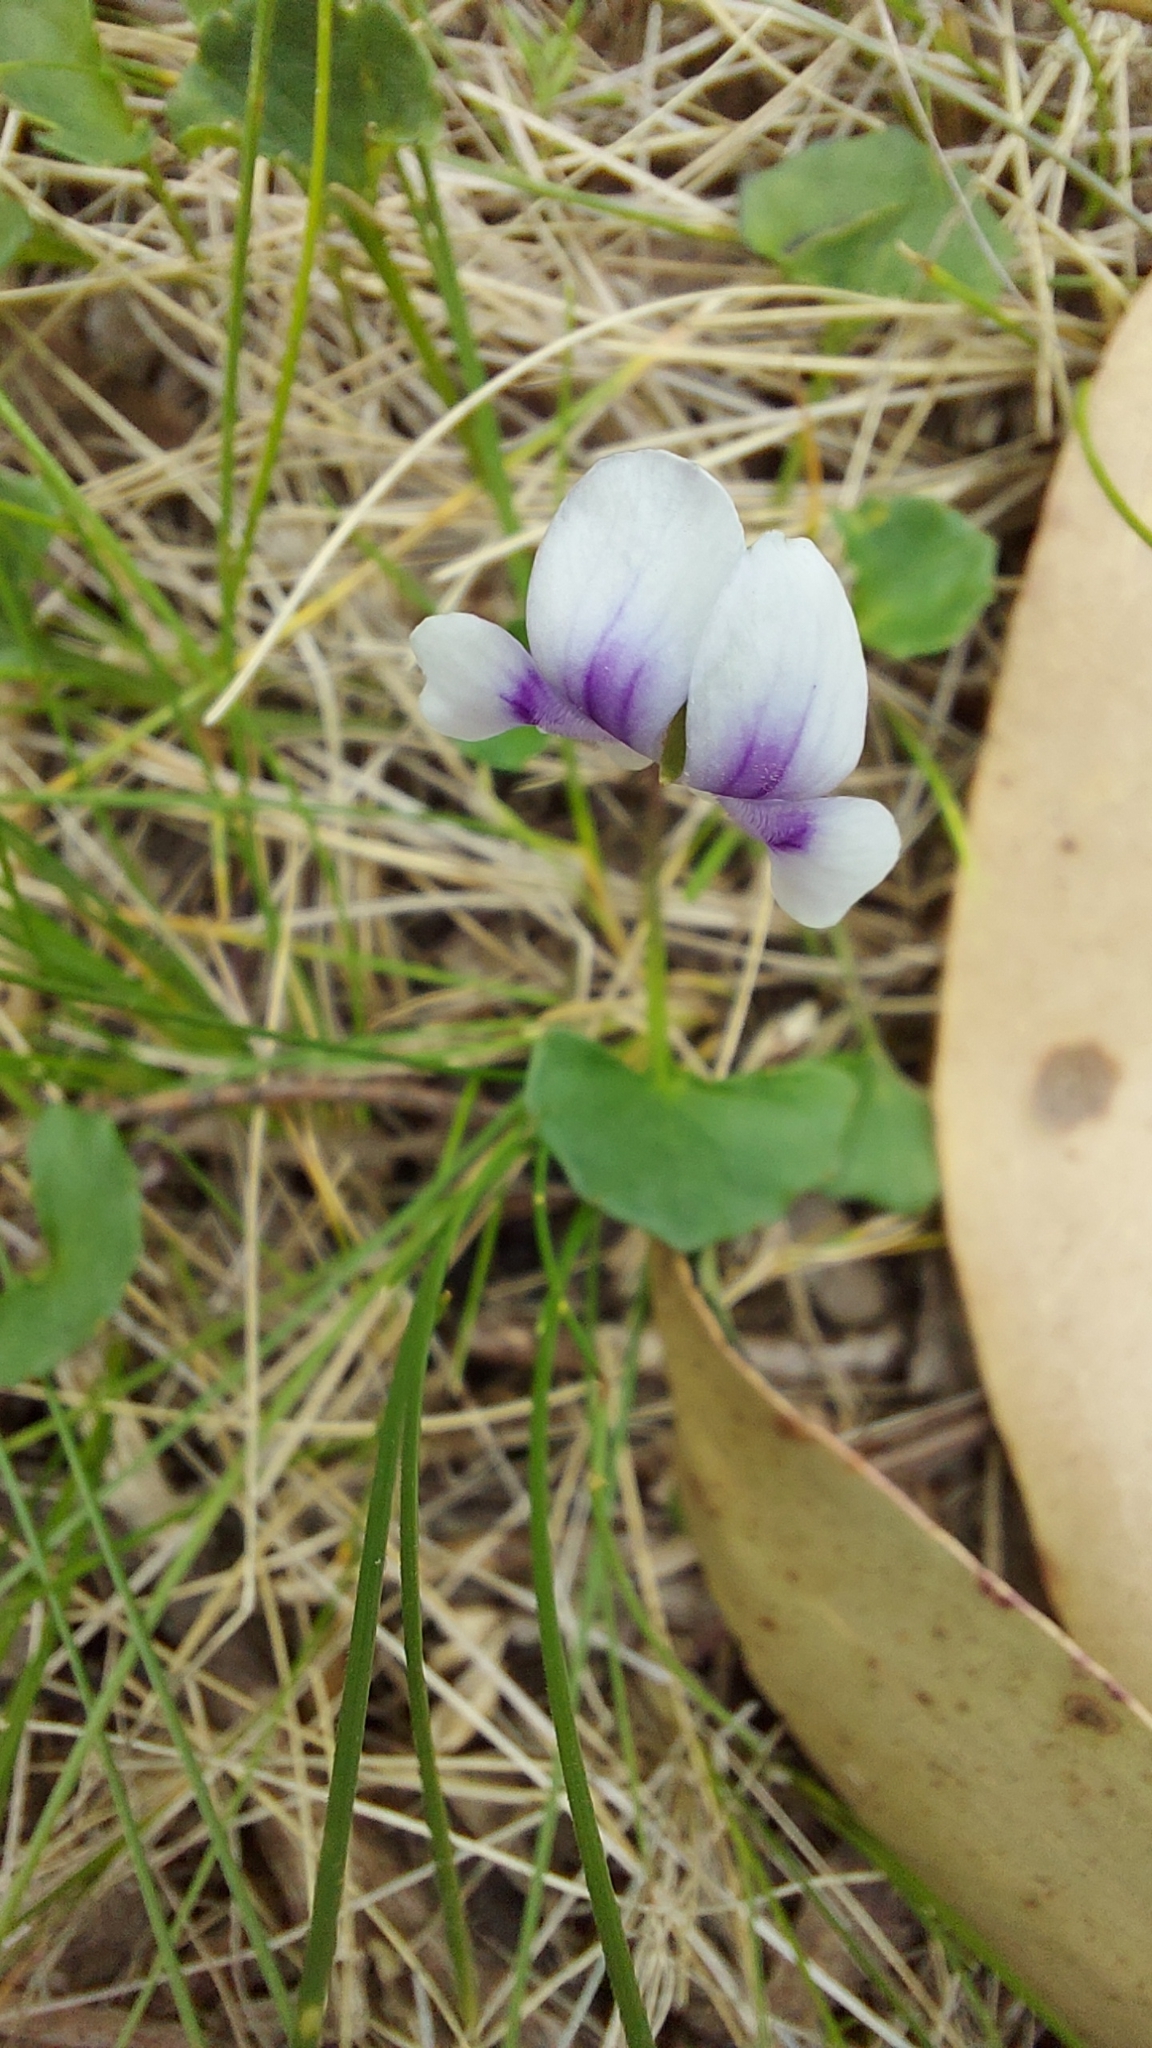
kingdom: Plantae
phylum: Tracheophyta
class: Magnoliopsida
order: Malpighiales
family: Violaceae
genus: Viola
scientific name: Viola hederacea
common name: Australian violet
